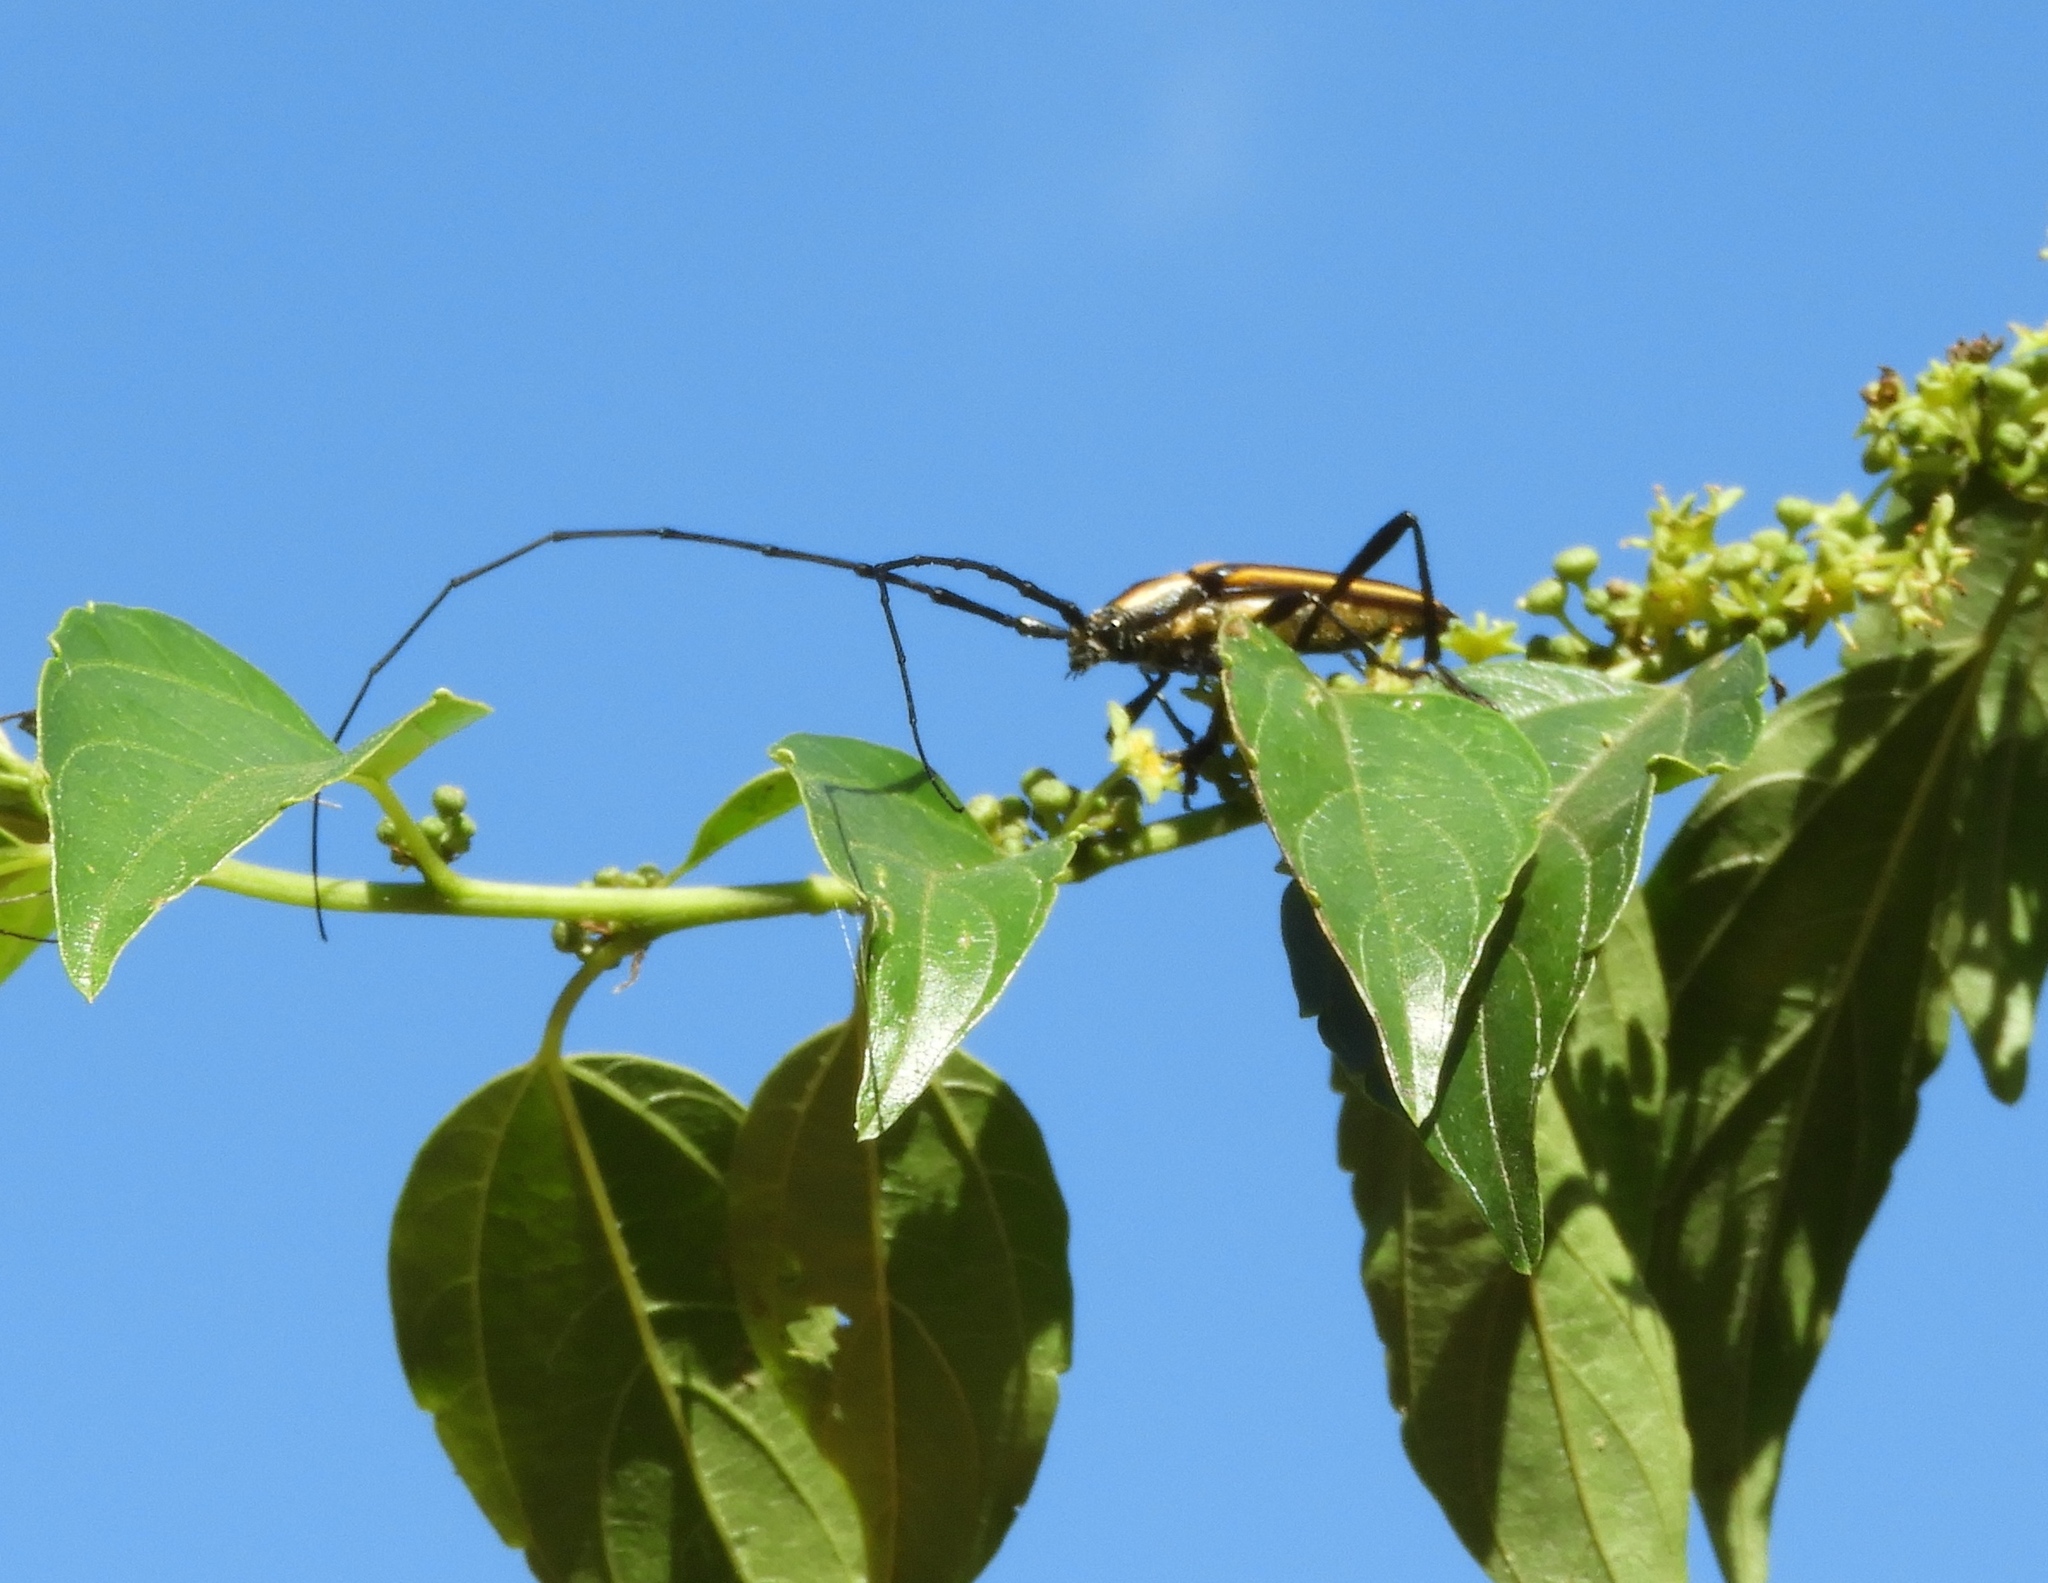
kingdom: Animalia
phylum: Arthropoda
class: Insecta
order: Coleoptera
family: Cerambycidae
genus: Sphaenothecus
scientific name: Sphaenothecus
